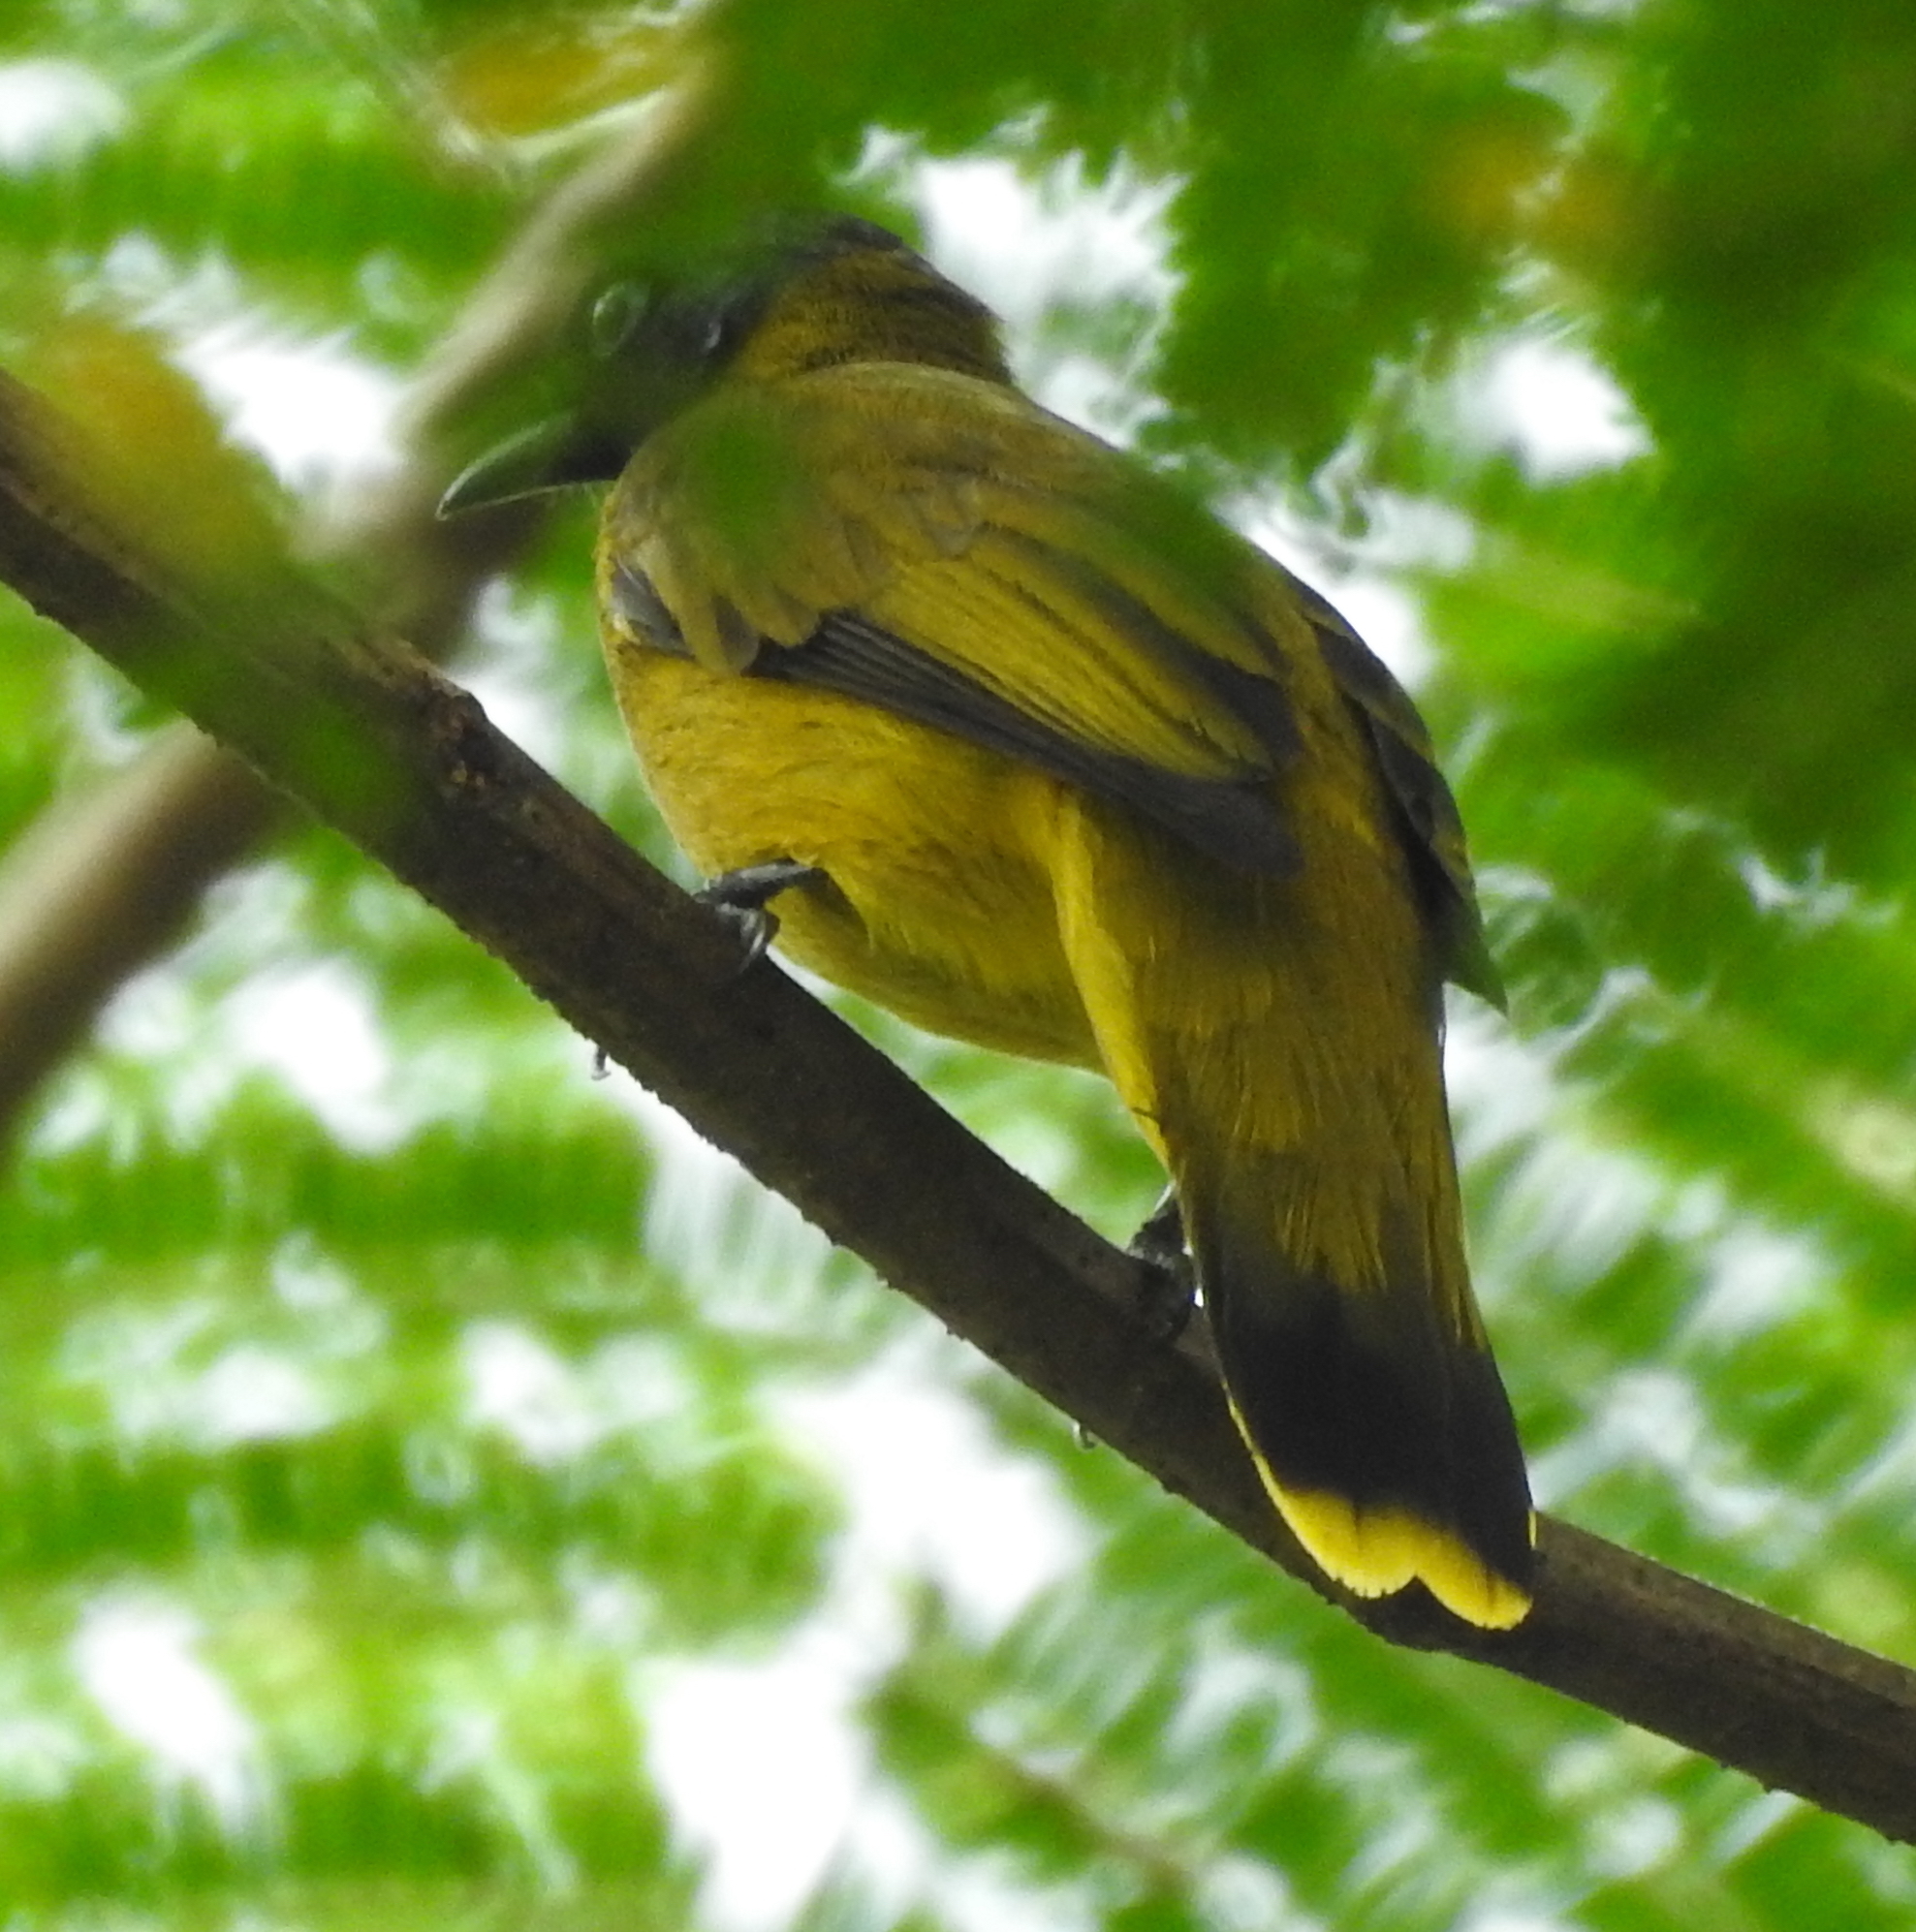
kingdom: Animalia
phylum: Chordata
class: Aves
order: Passeriformes
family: Pycnonotidae
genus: Microtarsus
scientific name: Microtarsus
